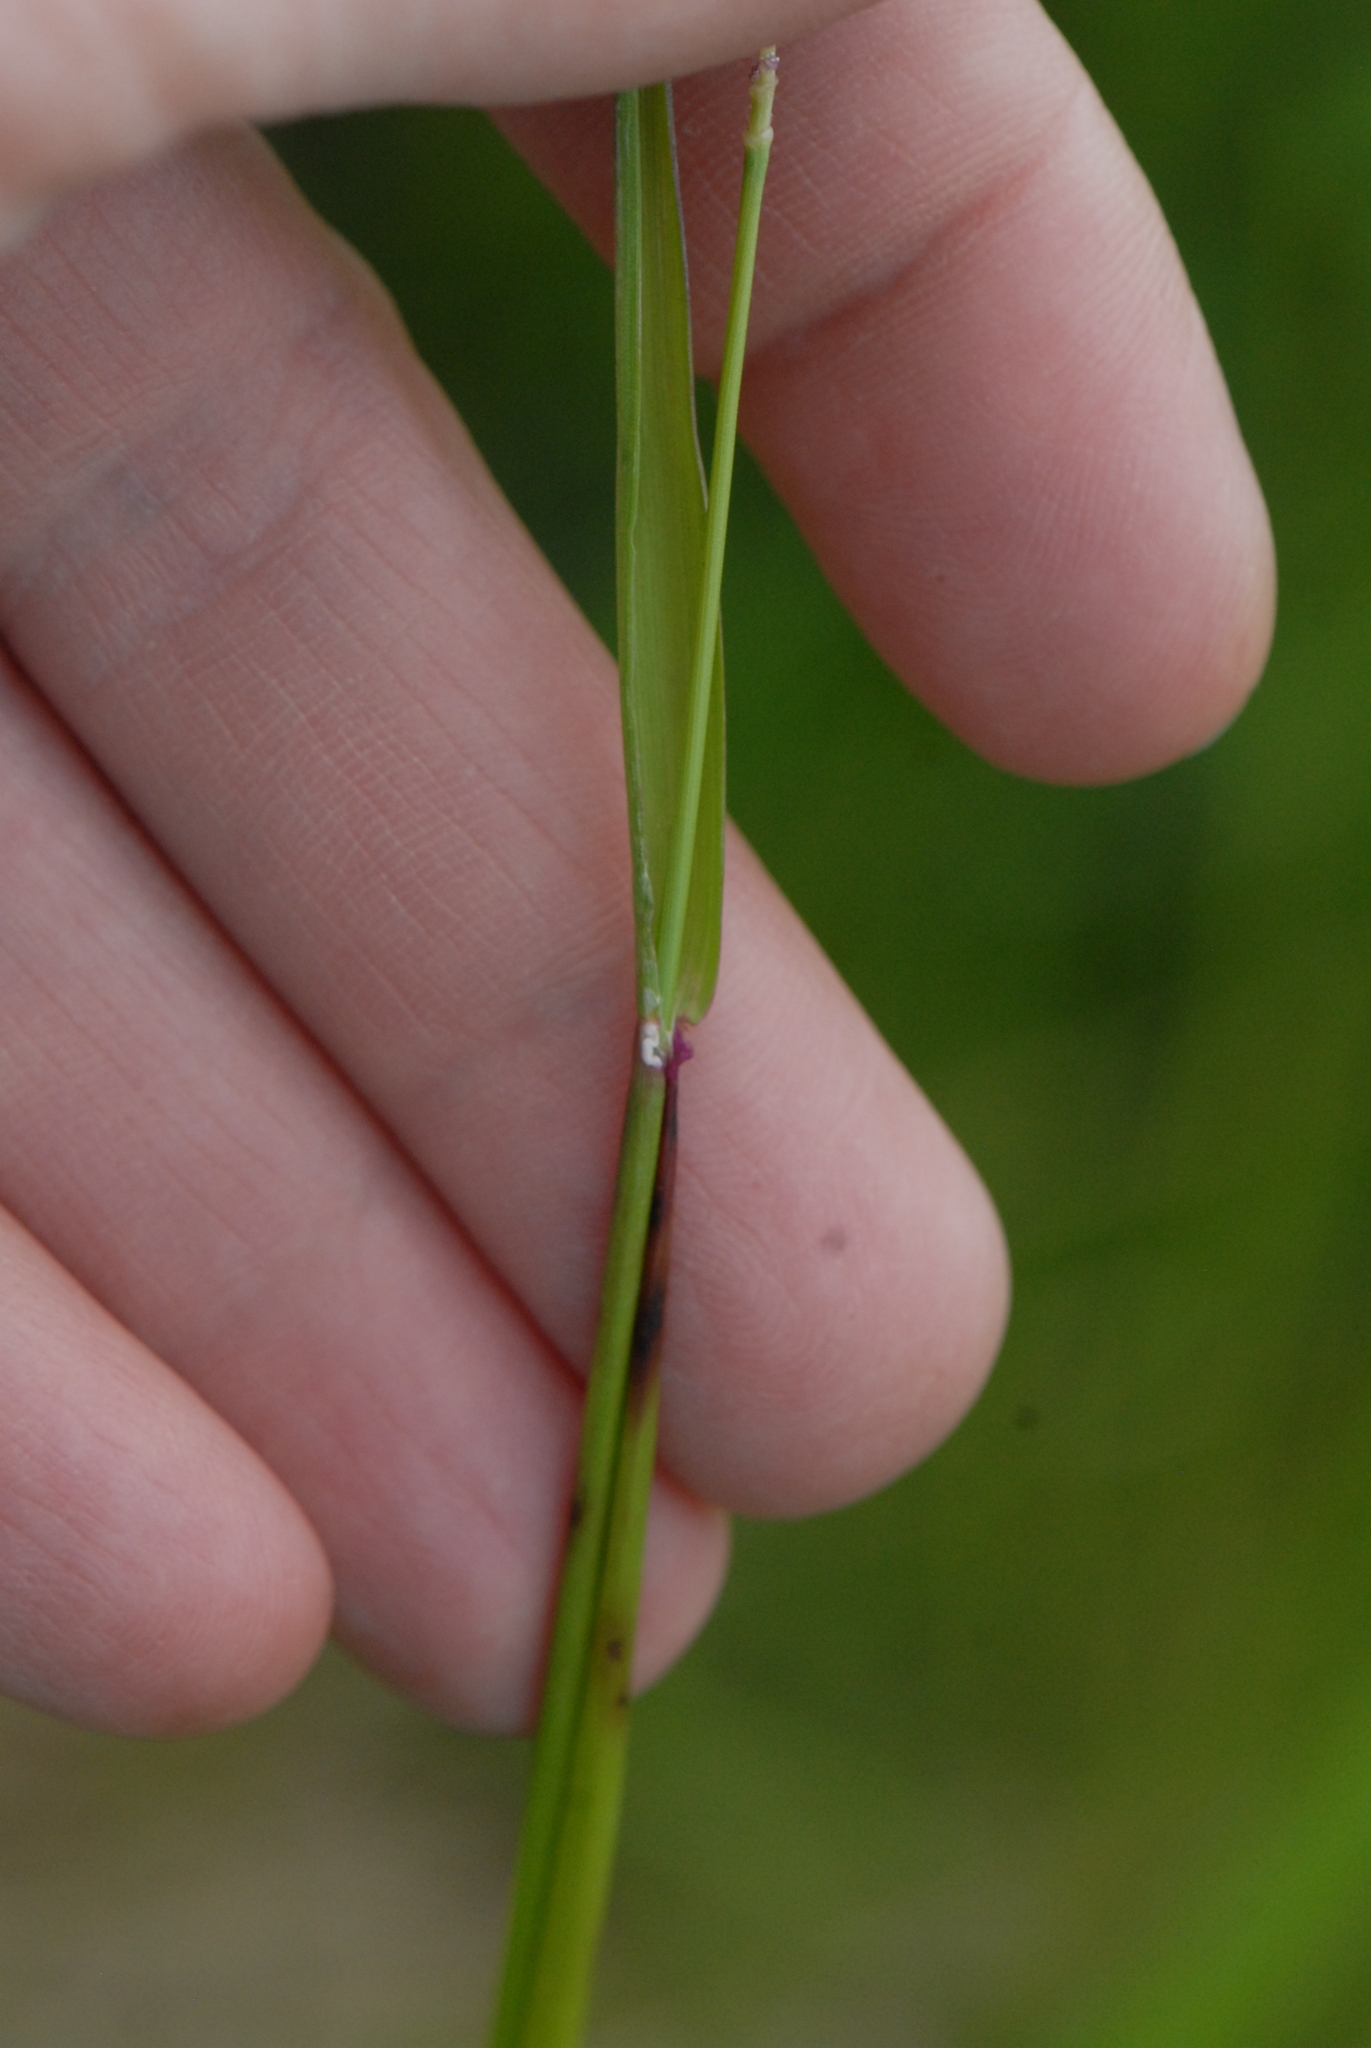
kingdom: Plantae
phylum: Tracheophyta
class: Liliopsida
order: Poales
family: Poaceae
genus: Alopecurus
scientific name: Alopecurus pratensis
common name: Meadow foxtail
